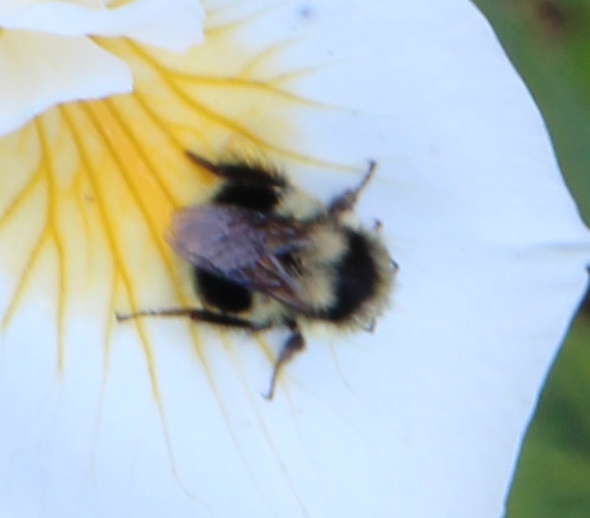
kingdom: Animalia
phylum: Arthropoda
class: Insecta
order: Hymenoptera
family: Apidae
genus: Bombus
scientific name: Bombus melanopygus
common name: Black tail bumble bee
